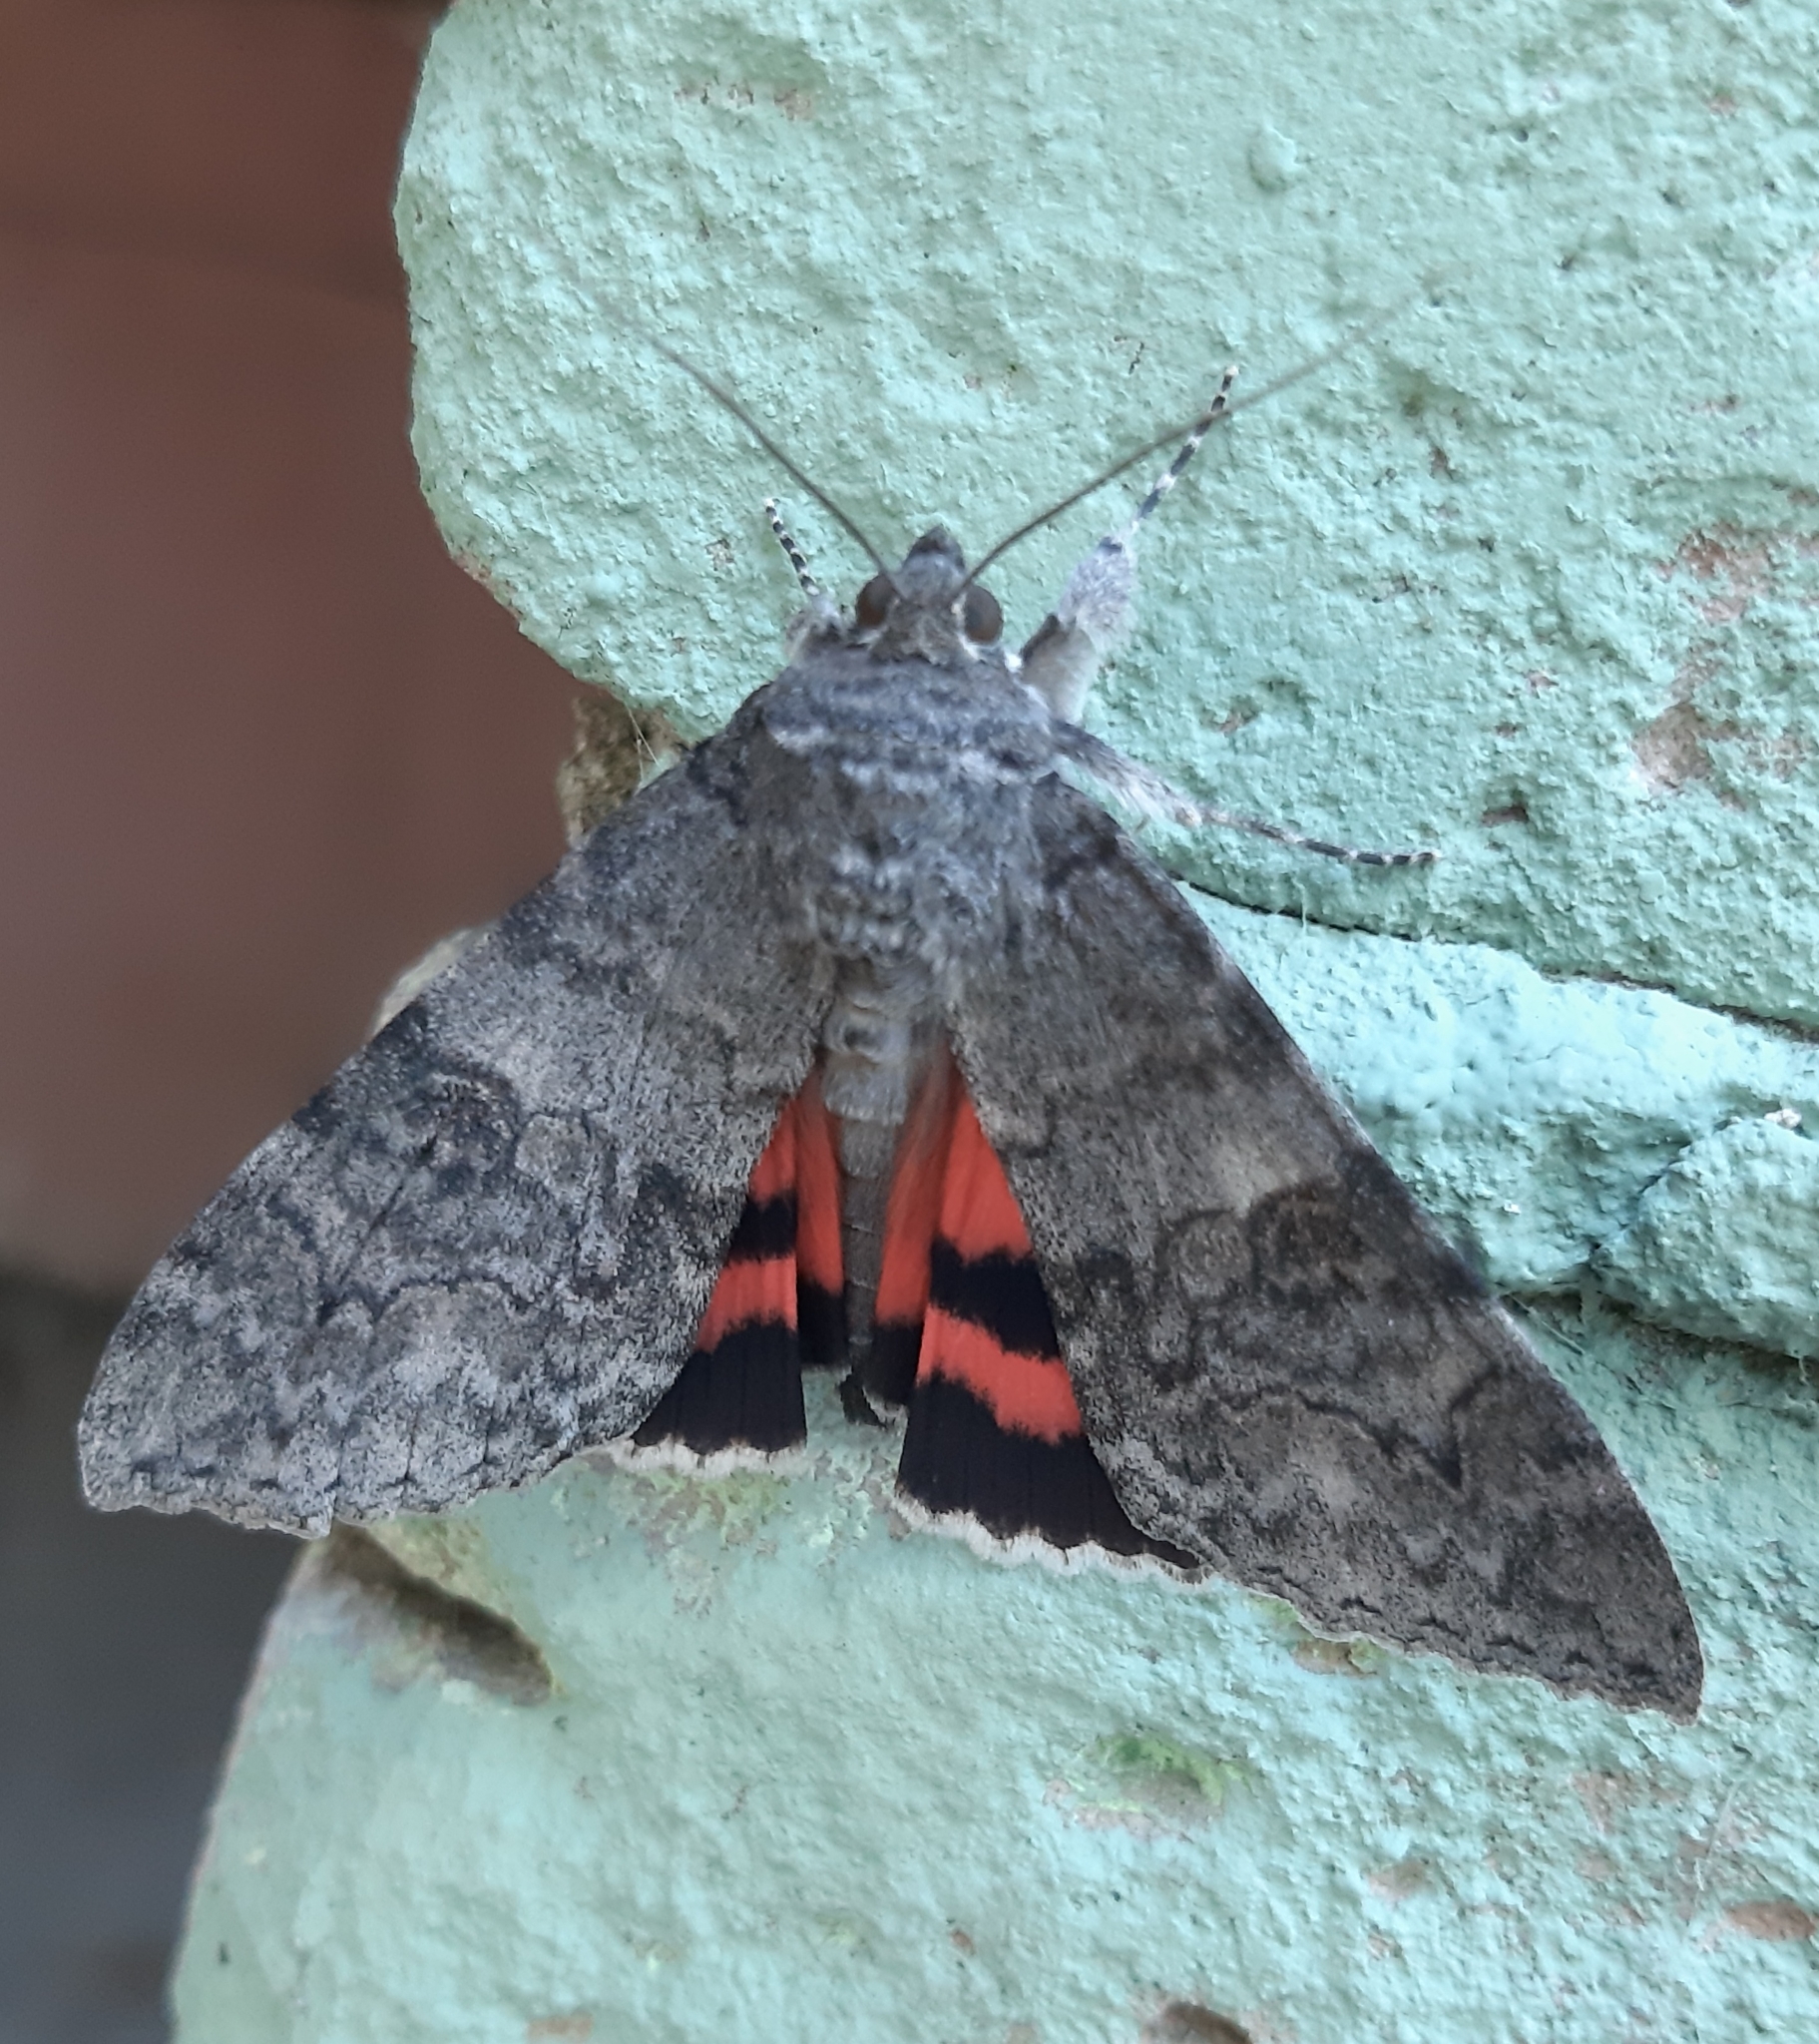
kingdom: Animalia
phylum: Arthropoda
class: Insecta
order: Lepidoptera
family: Erebidae
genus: Catocala
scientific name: Catocala nupta
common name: Red underwing
